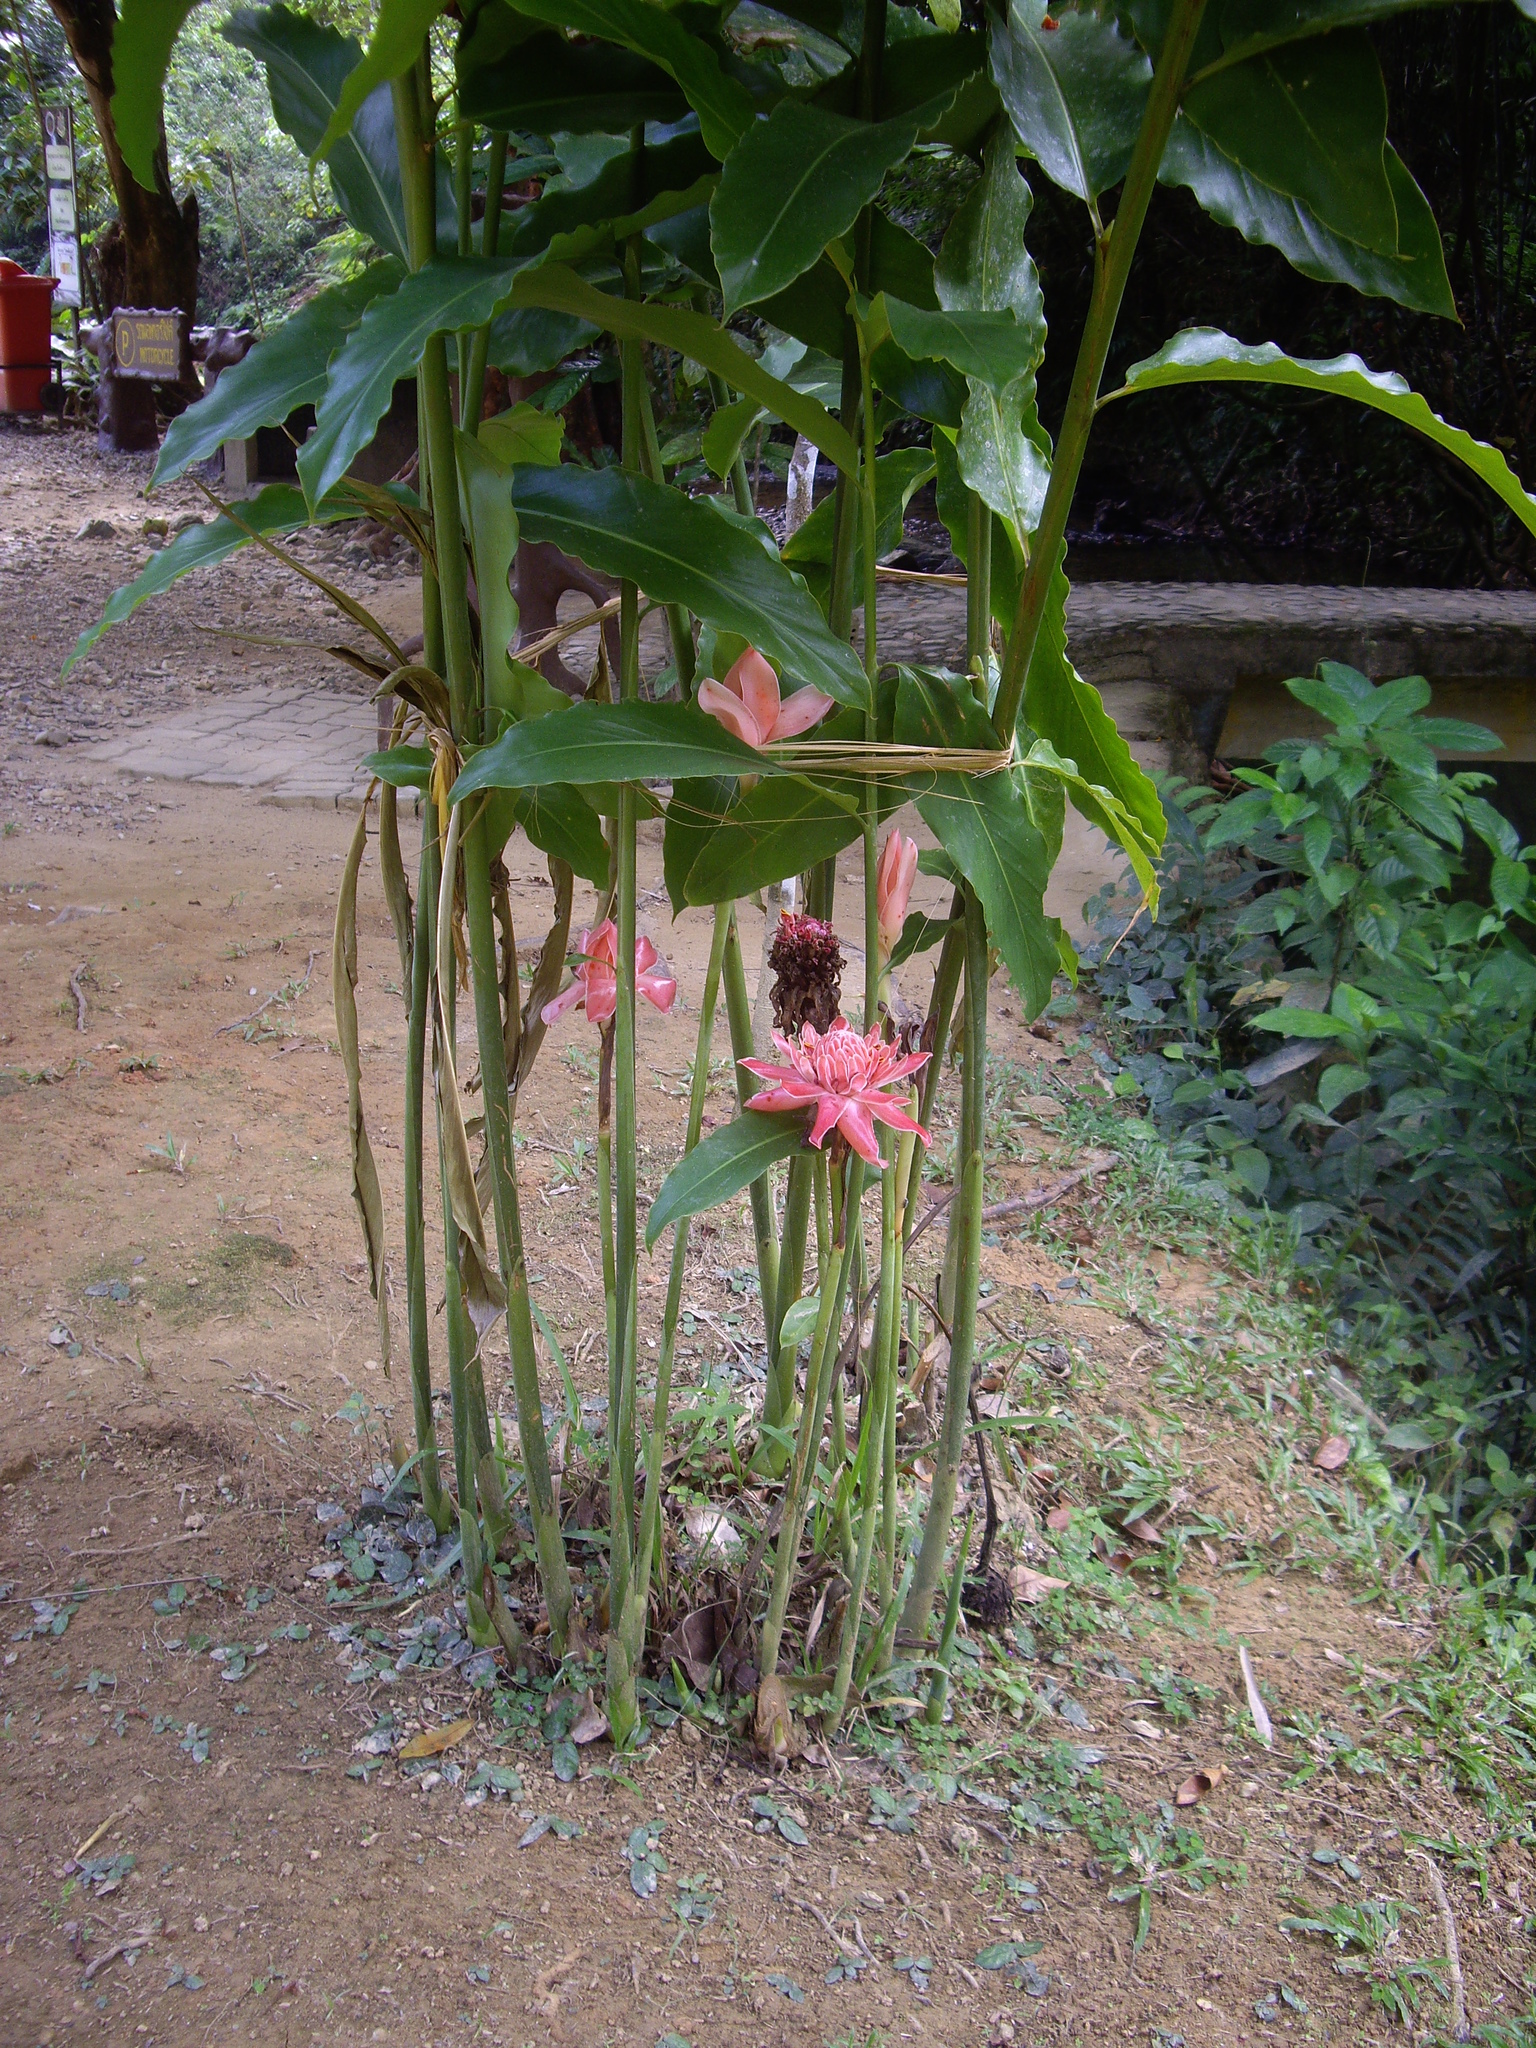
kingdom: Plantae
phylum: Tracheophyta
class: Liliopsida
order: Zingiberales
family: Zingiberaceae
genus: Etlingera
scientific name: Etlingera elatior
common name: Philippine waxflower
